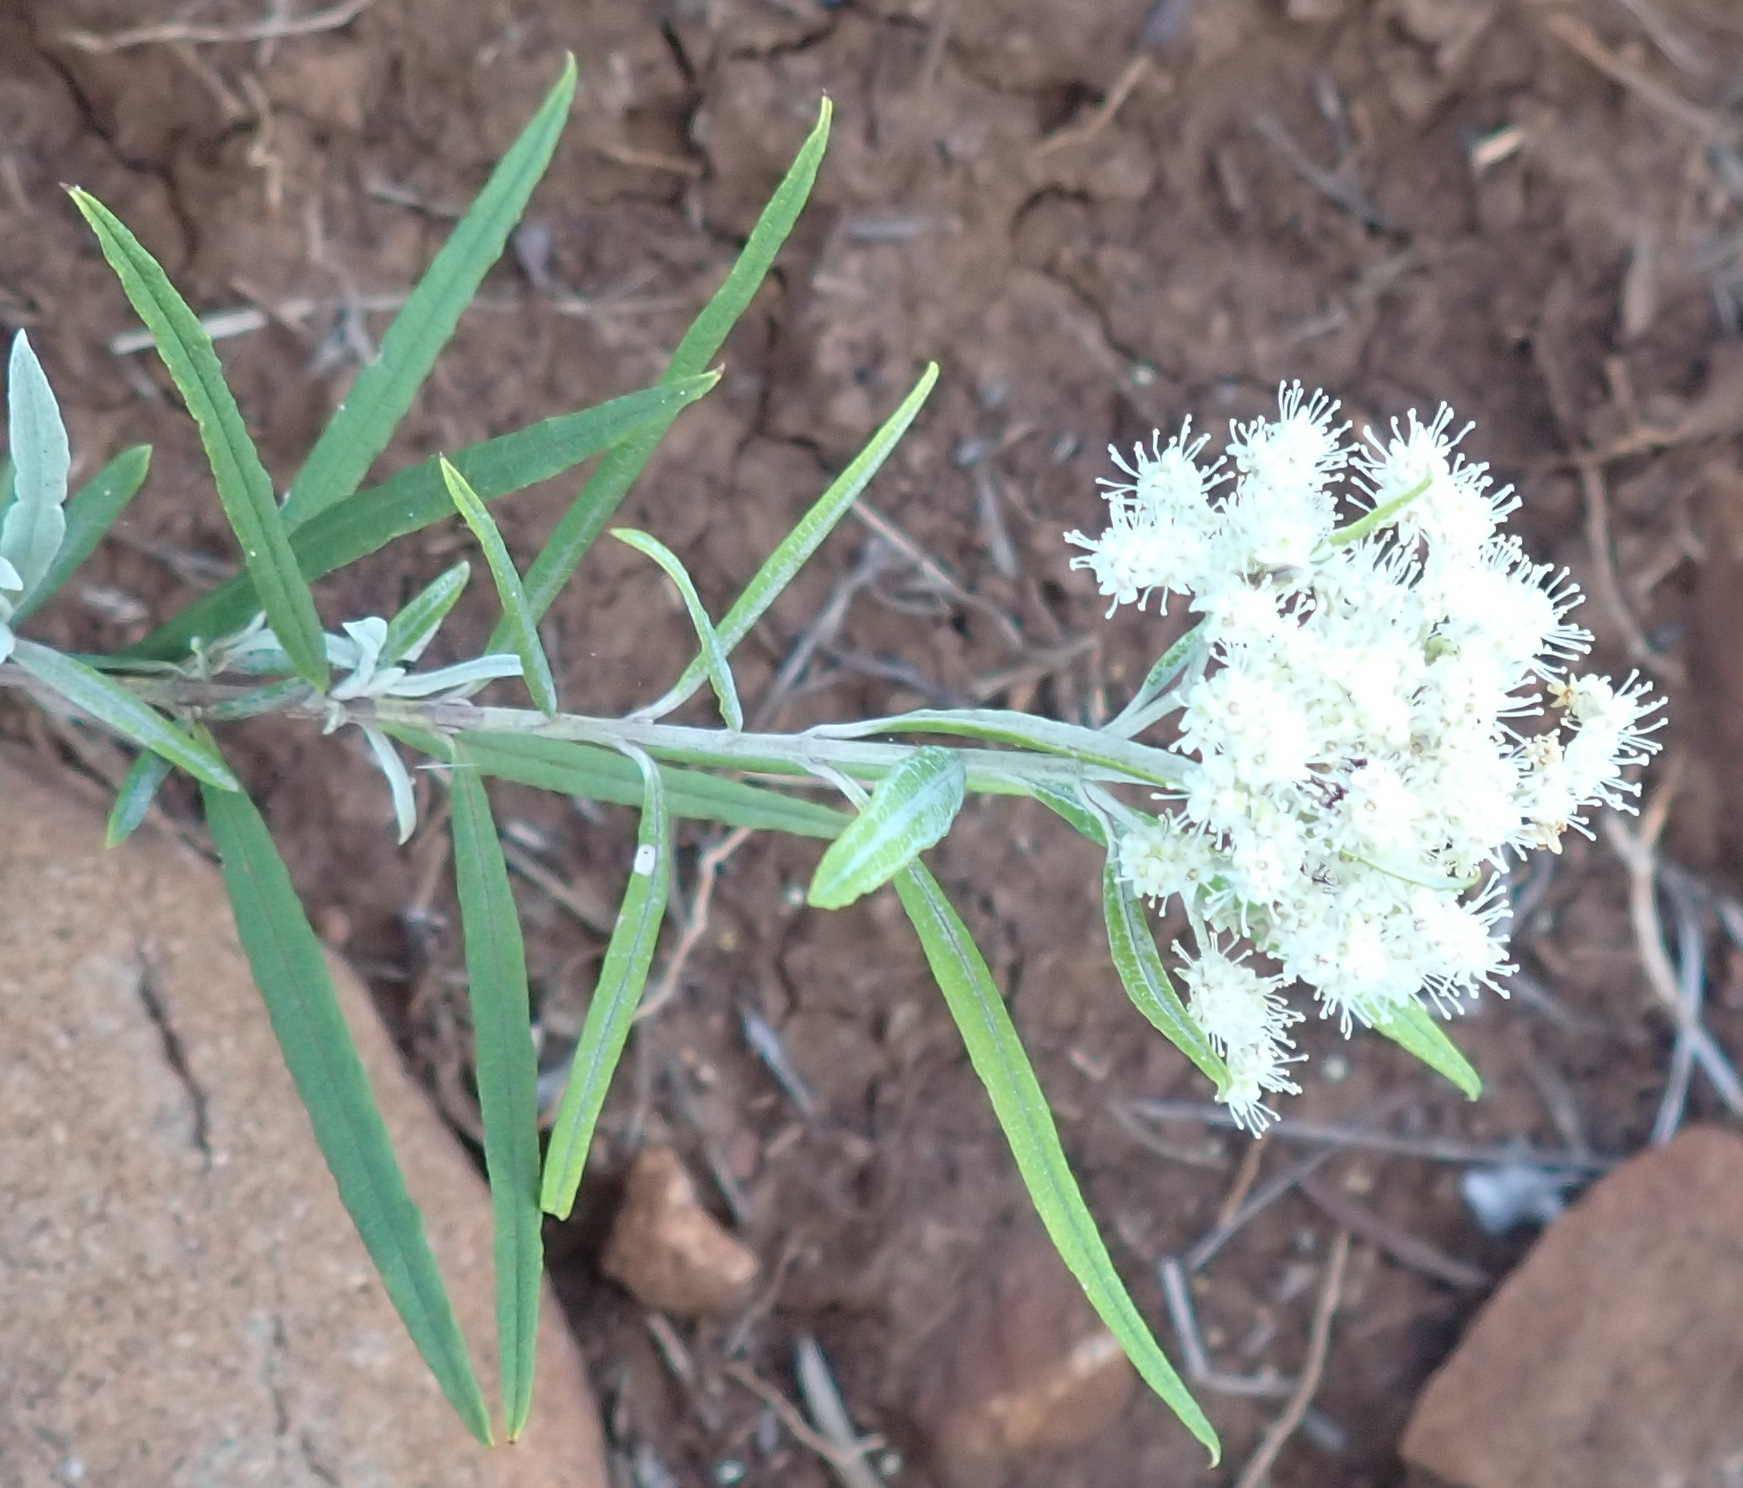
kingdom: Plantae
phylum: Tracheophyta
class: Magnoliopsida
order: Lamiales
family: Scrophulariaceae
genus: Buddleja
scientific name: Buddleja saligna
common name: False olive
